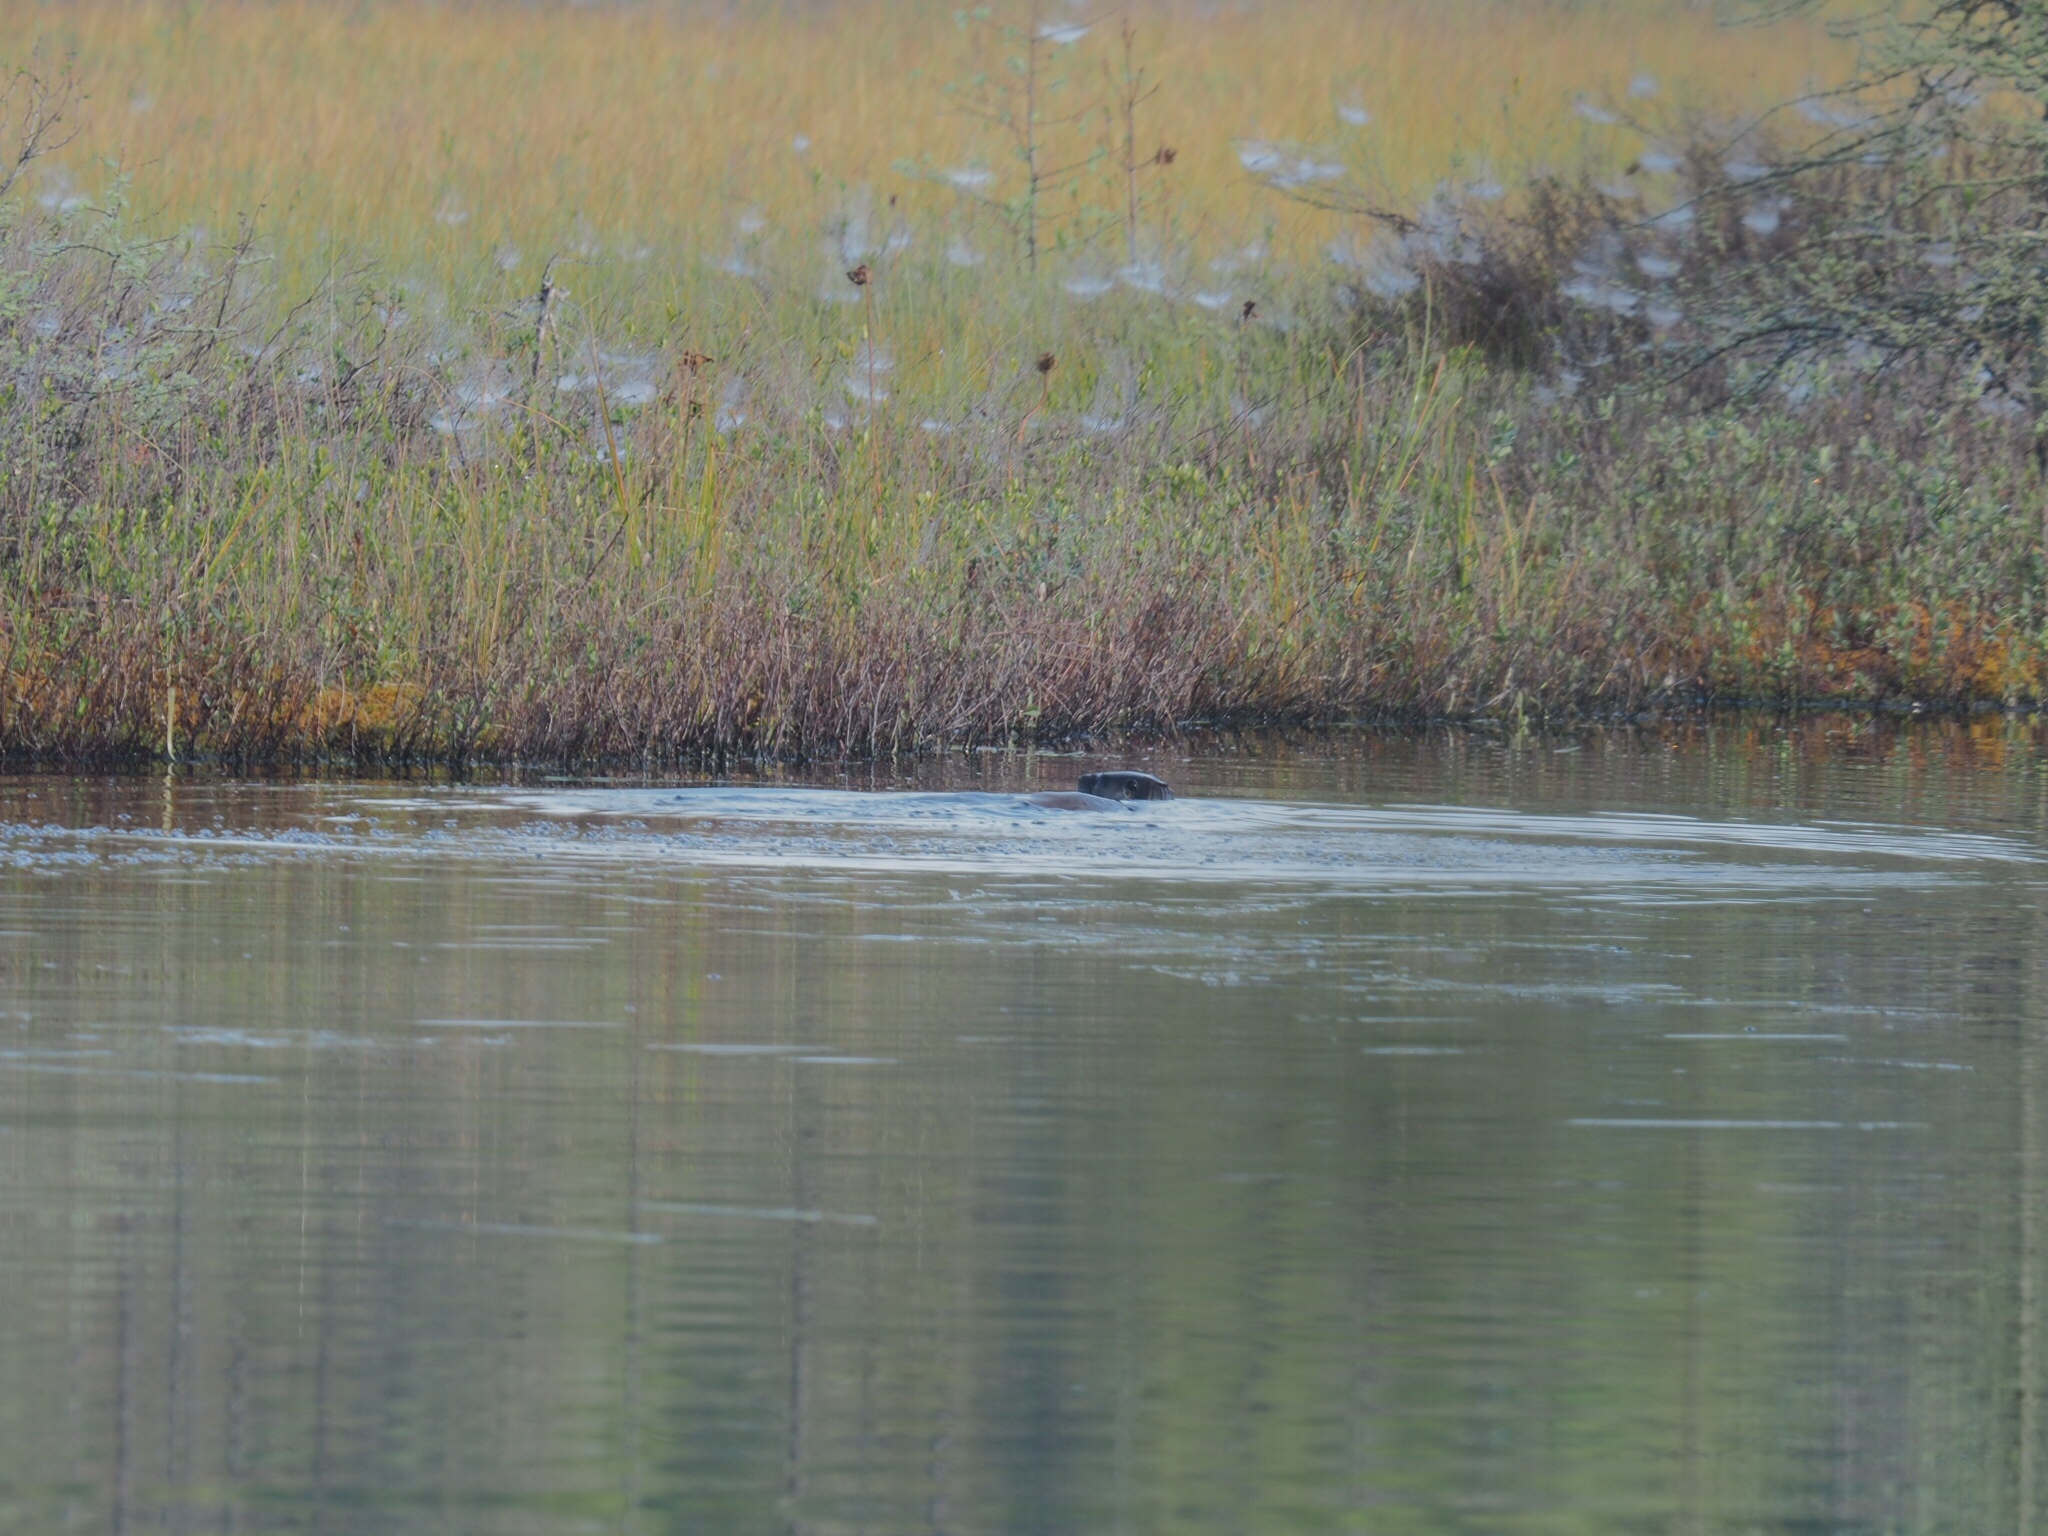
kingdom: Animalia
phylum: Chordata
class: Mammalia
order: Carnivora
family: Mustelidae
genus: Lontra
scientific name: Lontra canadensis
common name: North american river otter
